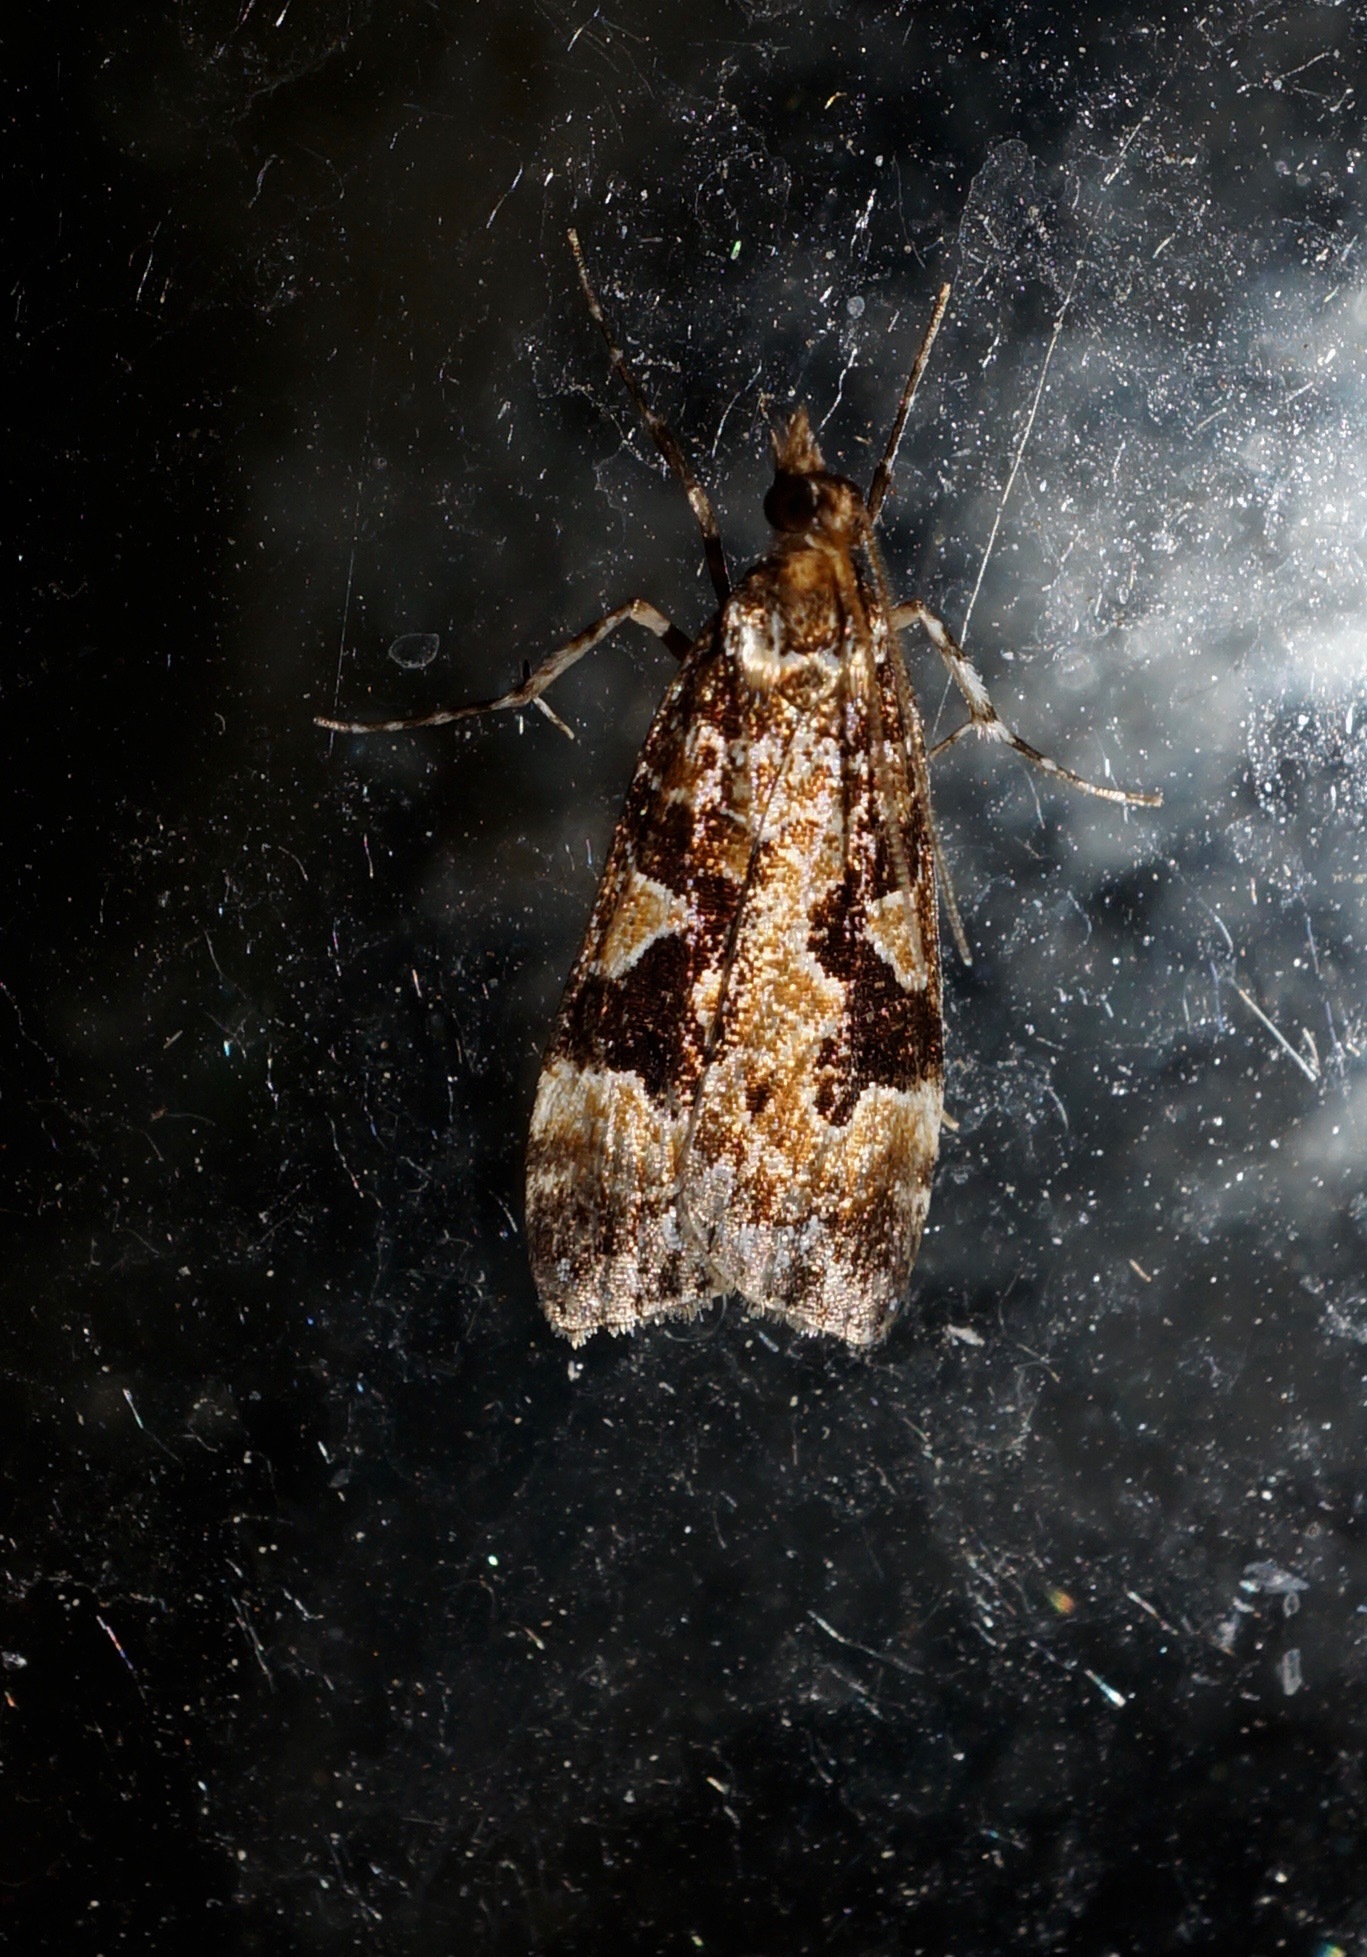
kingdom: Animalia
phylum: Arthropoda
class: Insecta
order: Lepidoptera
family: Crambidae
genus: Scoparia
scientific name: Scoparia ustimacula
